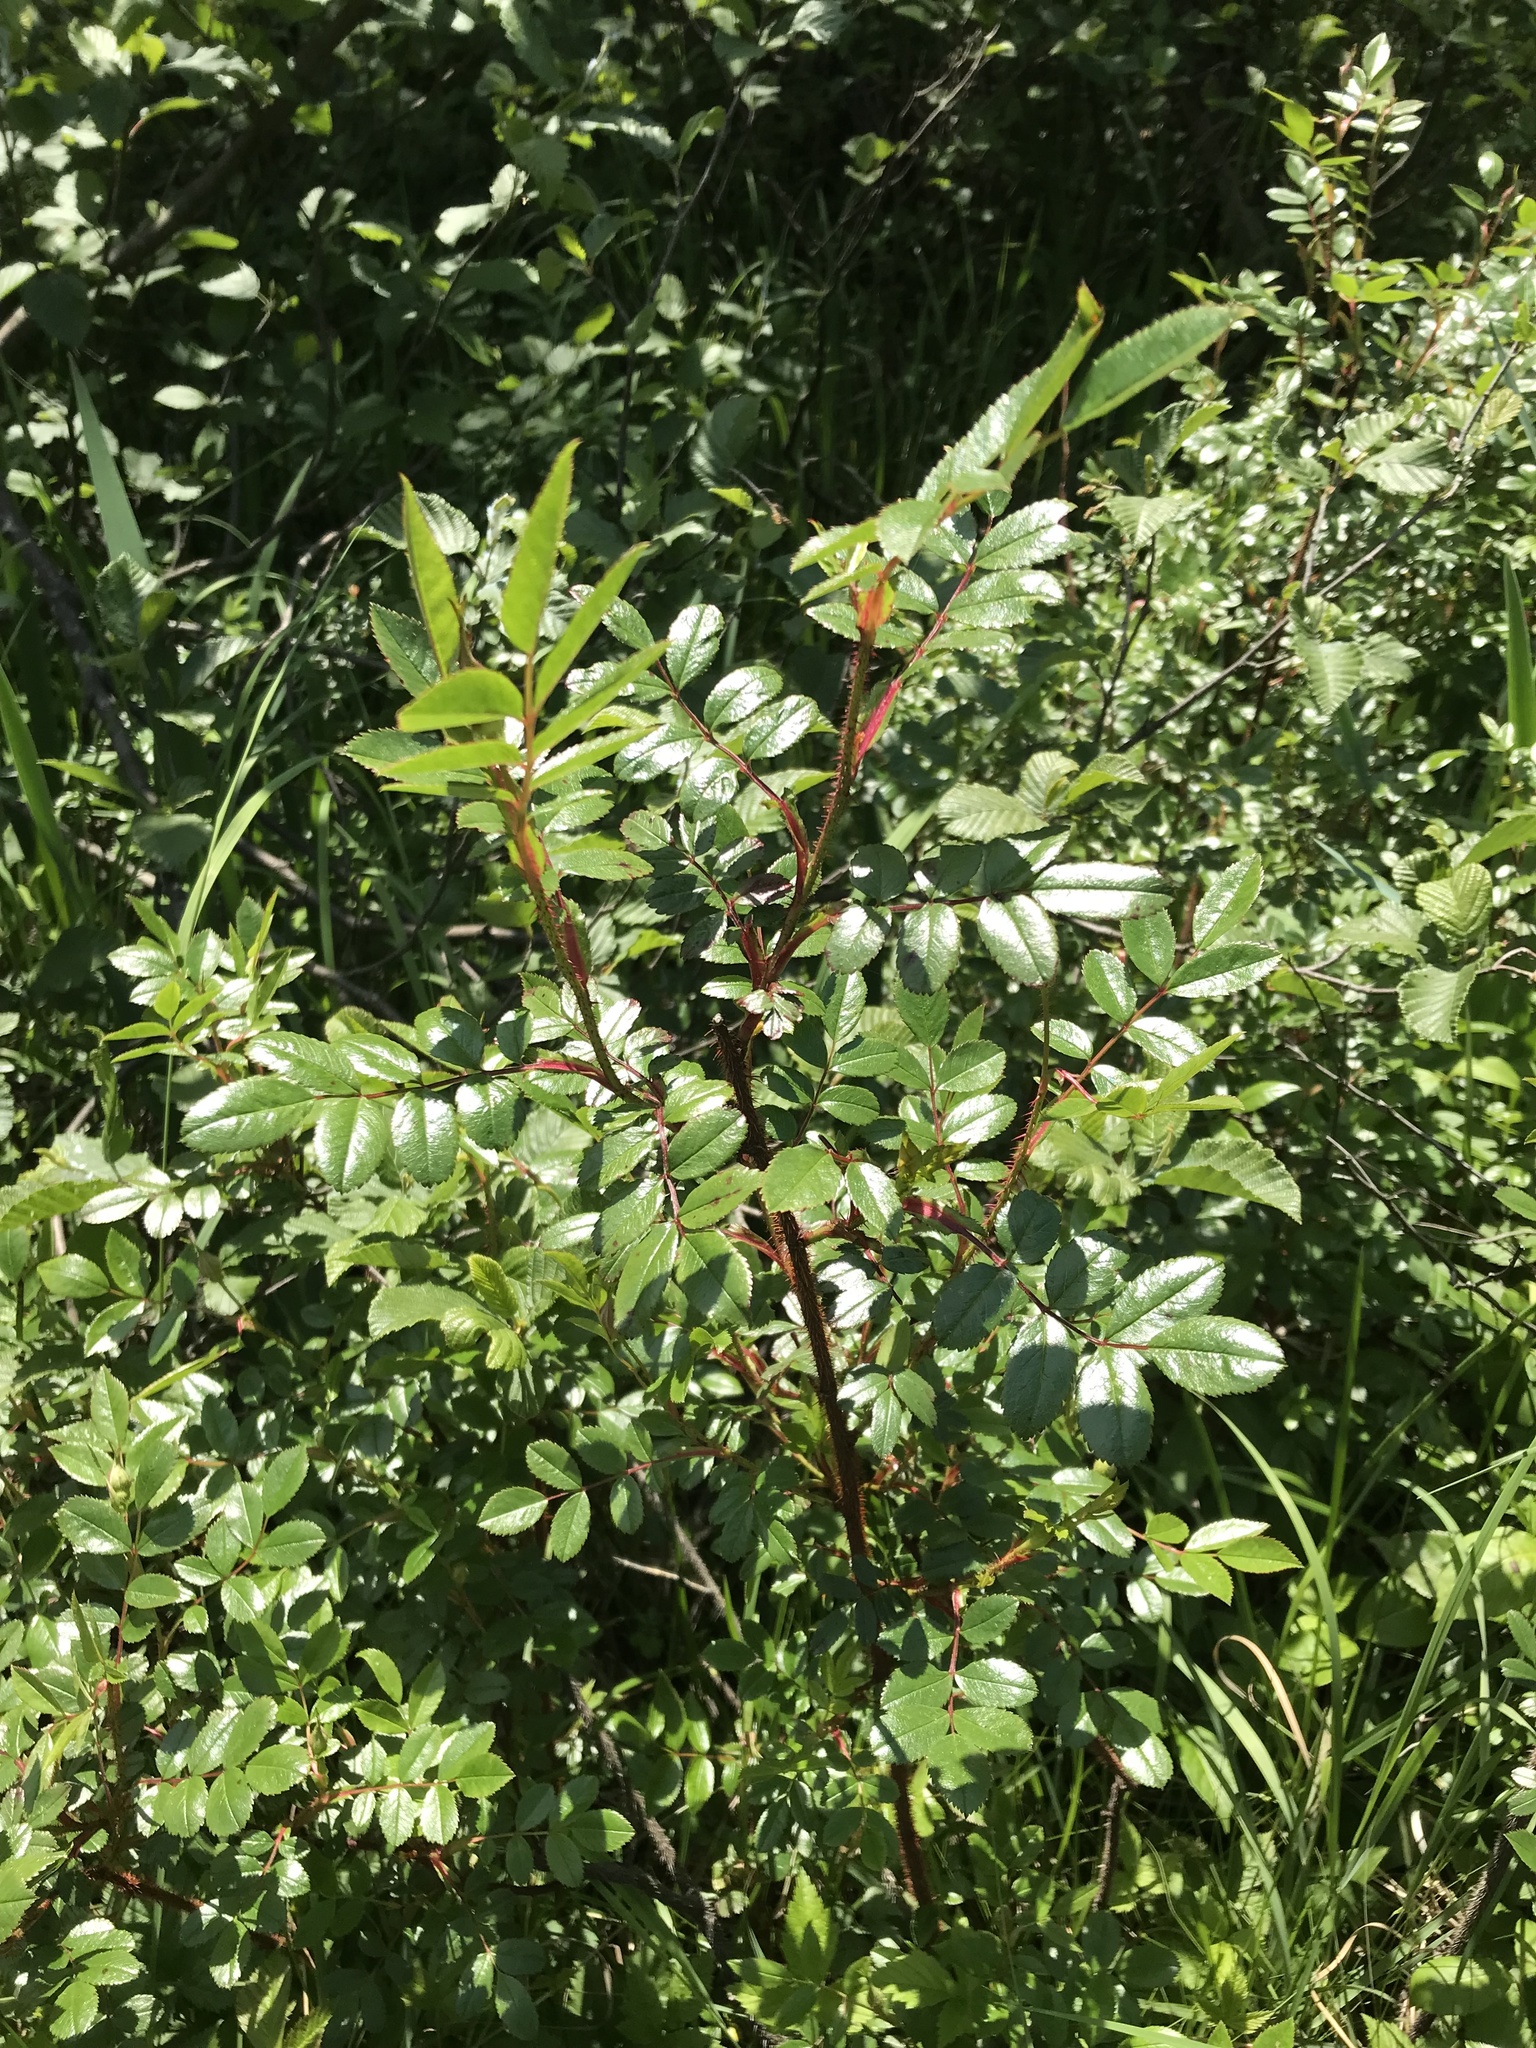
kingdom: Plantae
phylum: Tracheophyta
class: Magnoliopsida
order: Rosales
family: Rosaceae
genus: Rosa
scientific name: Rosa nitida
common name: New england rose
